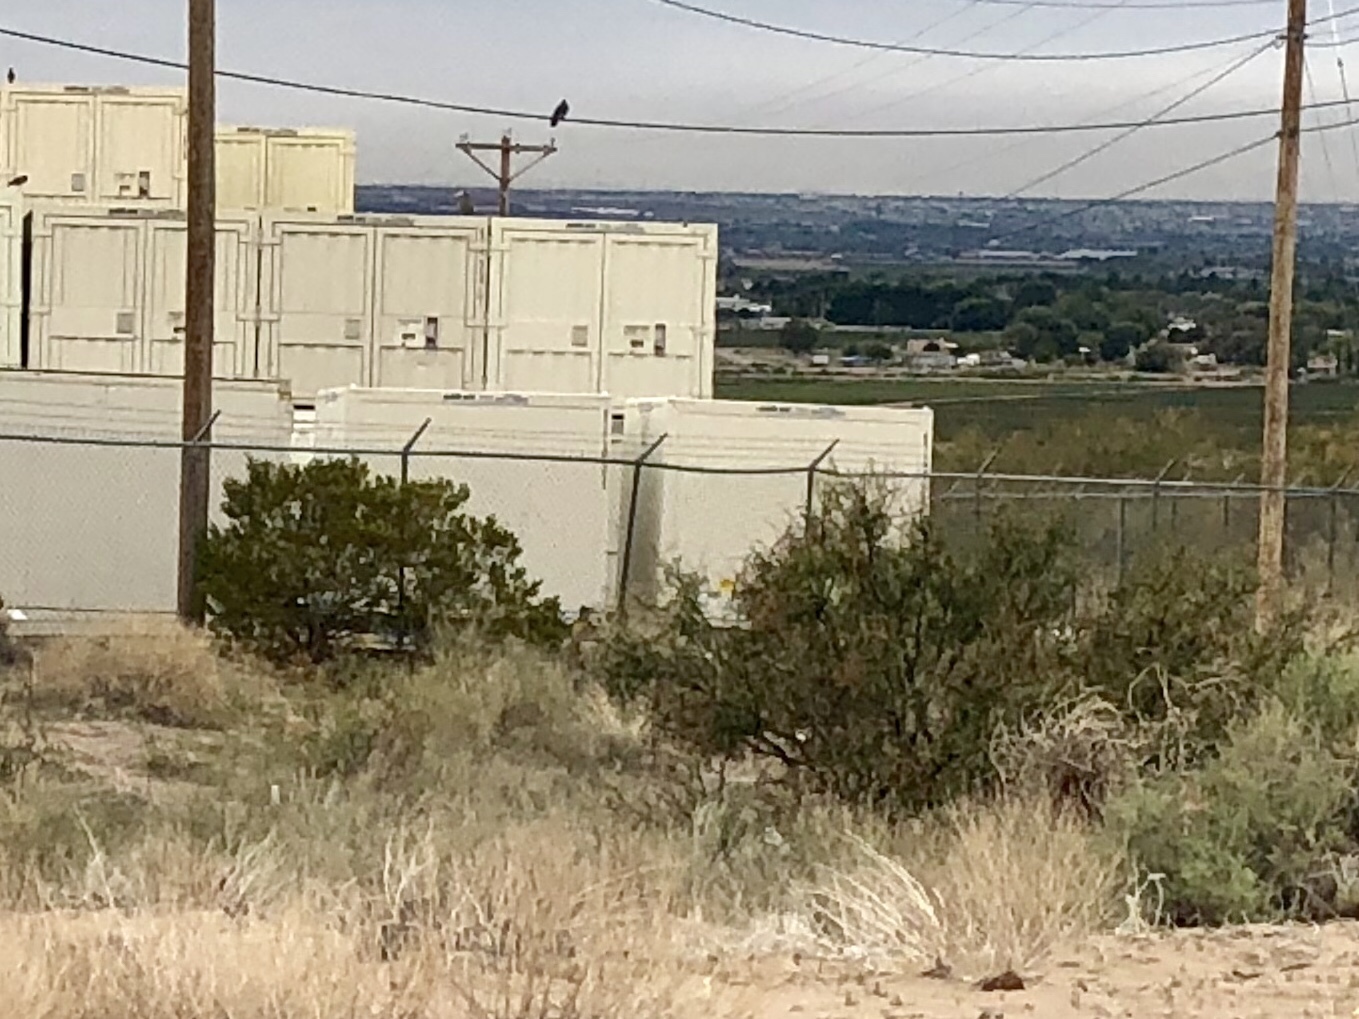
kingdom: Plantae
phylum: Tracheophyta
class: Magnoliopsida
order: Zygophyllales
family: Zygophyllaceae
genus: Larrea
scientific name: Larrea tridentata
